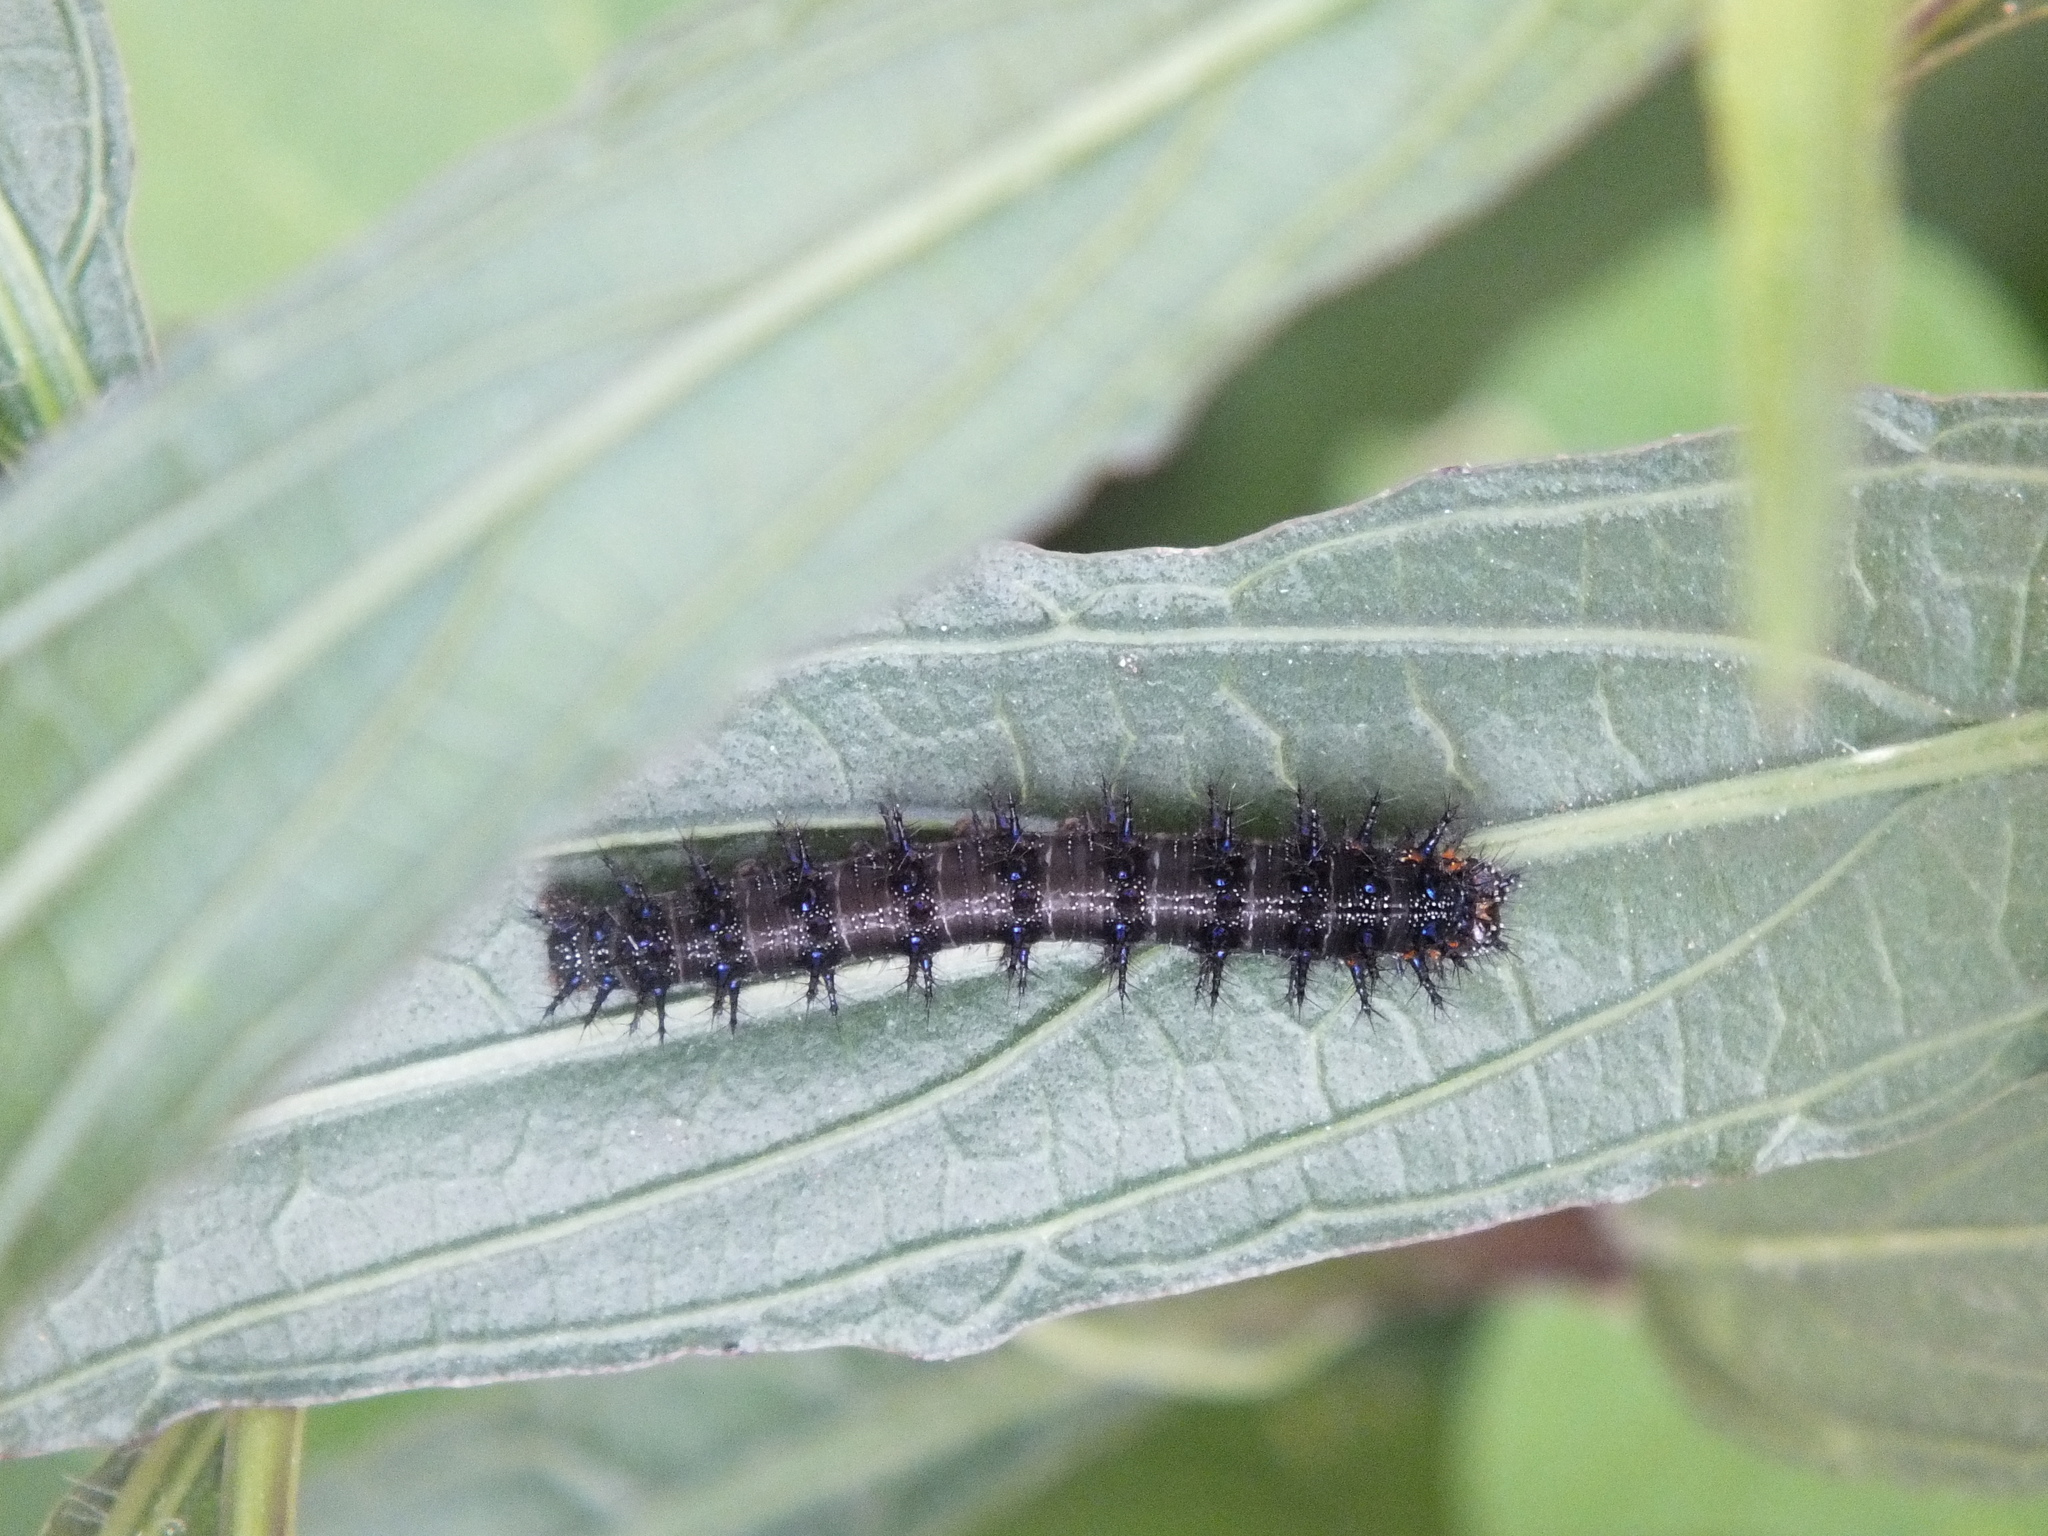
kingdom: Animalia
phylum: Arthropoda
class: Insecta
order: Lepidoptera
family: Nymphalidae
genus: Junonia
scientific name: Junonia lavinia
